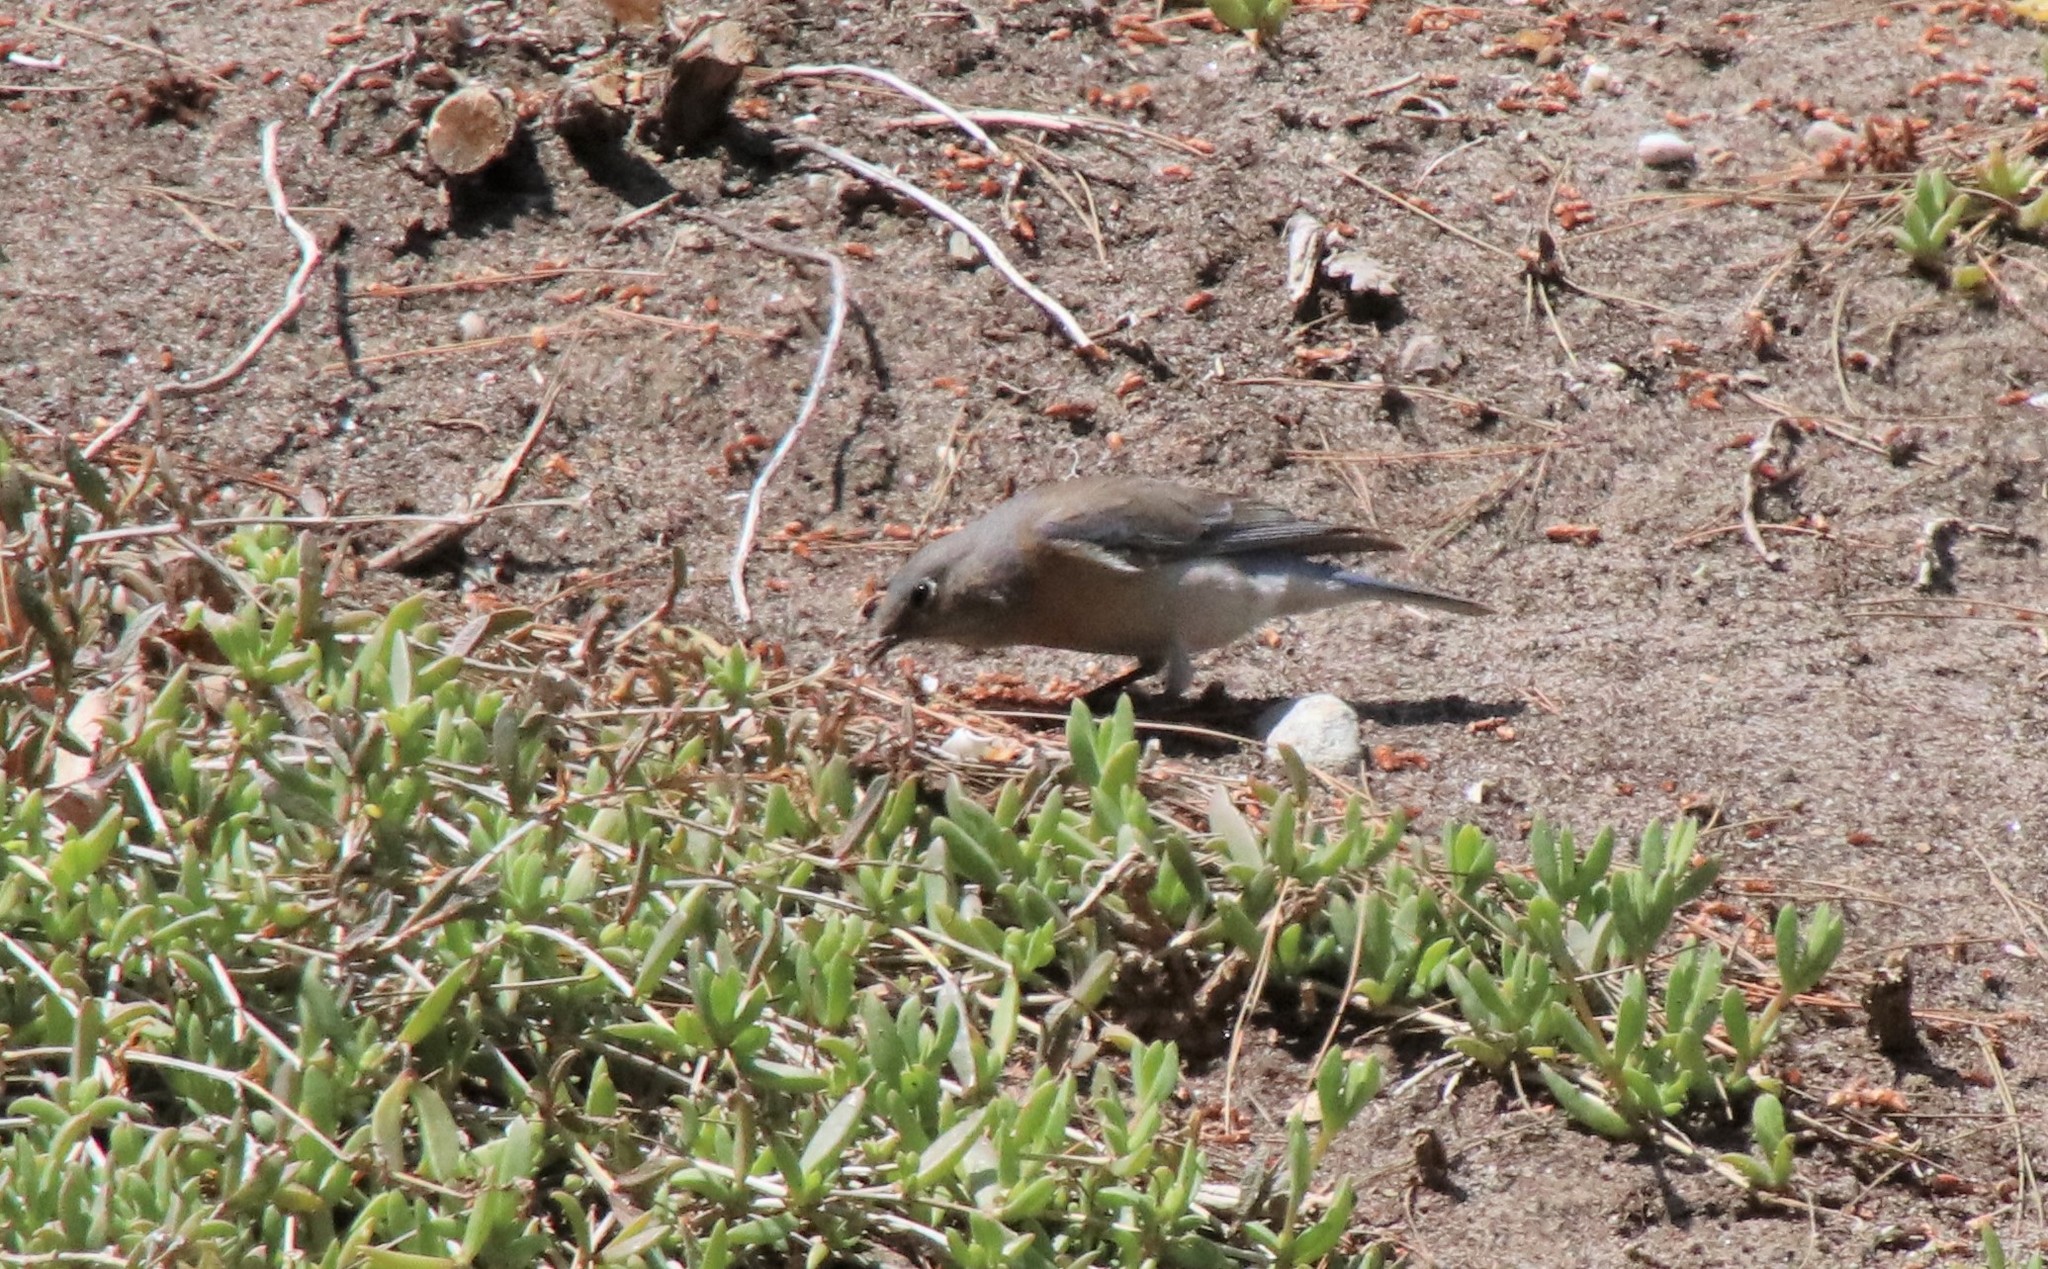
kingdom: Animalia
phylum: Chordata
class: Aves
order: Passeriformes
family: Turdidae
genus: Sialia
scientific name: Sialia mexicana
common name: Western bluebird
